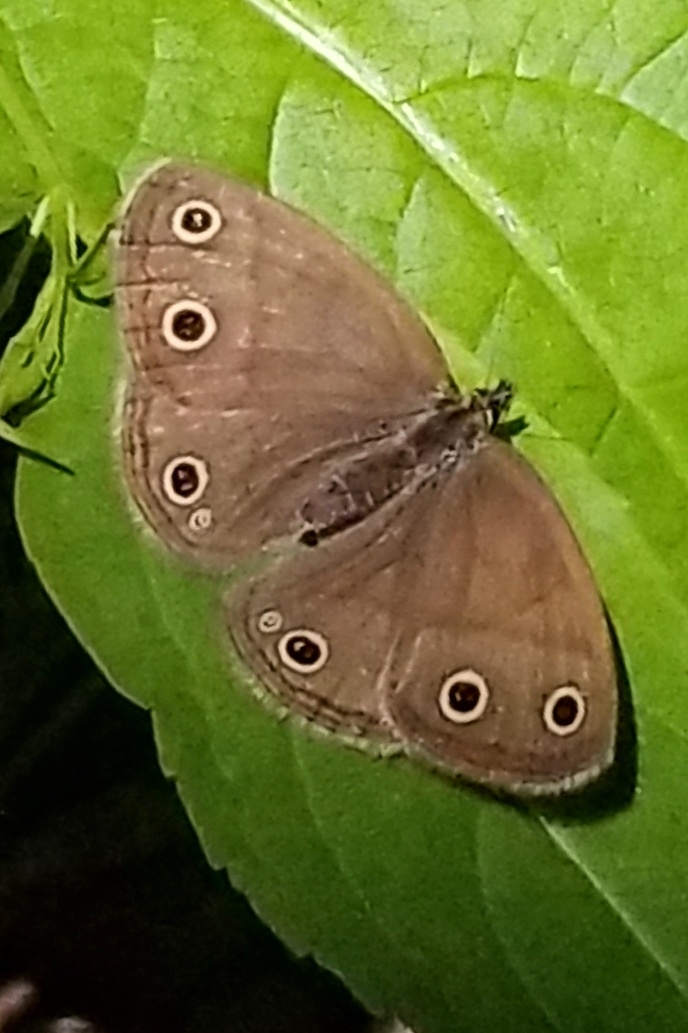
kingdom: Animalia
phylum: Arthropoda
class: Insecta
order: Lepidoptera
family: Nymphalidae
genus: Euptychia
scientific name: Euptychia cymela
